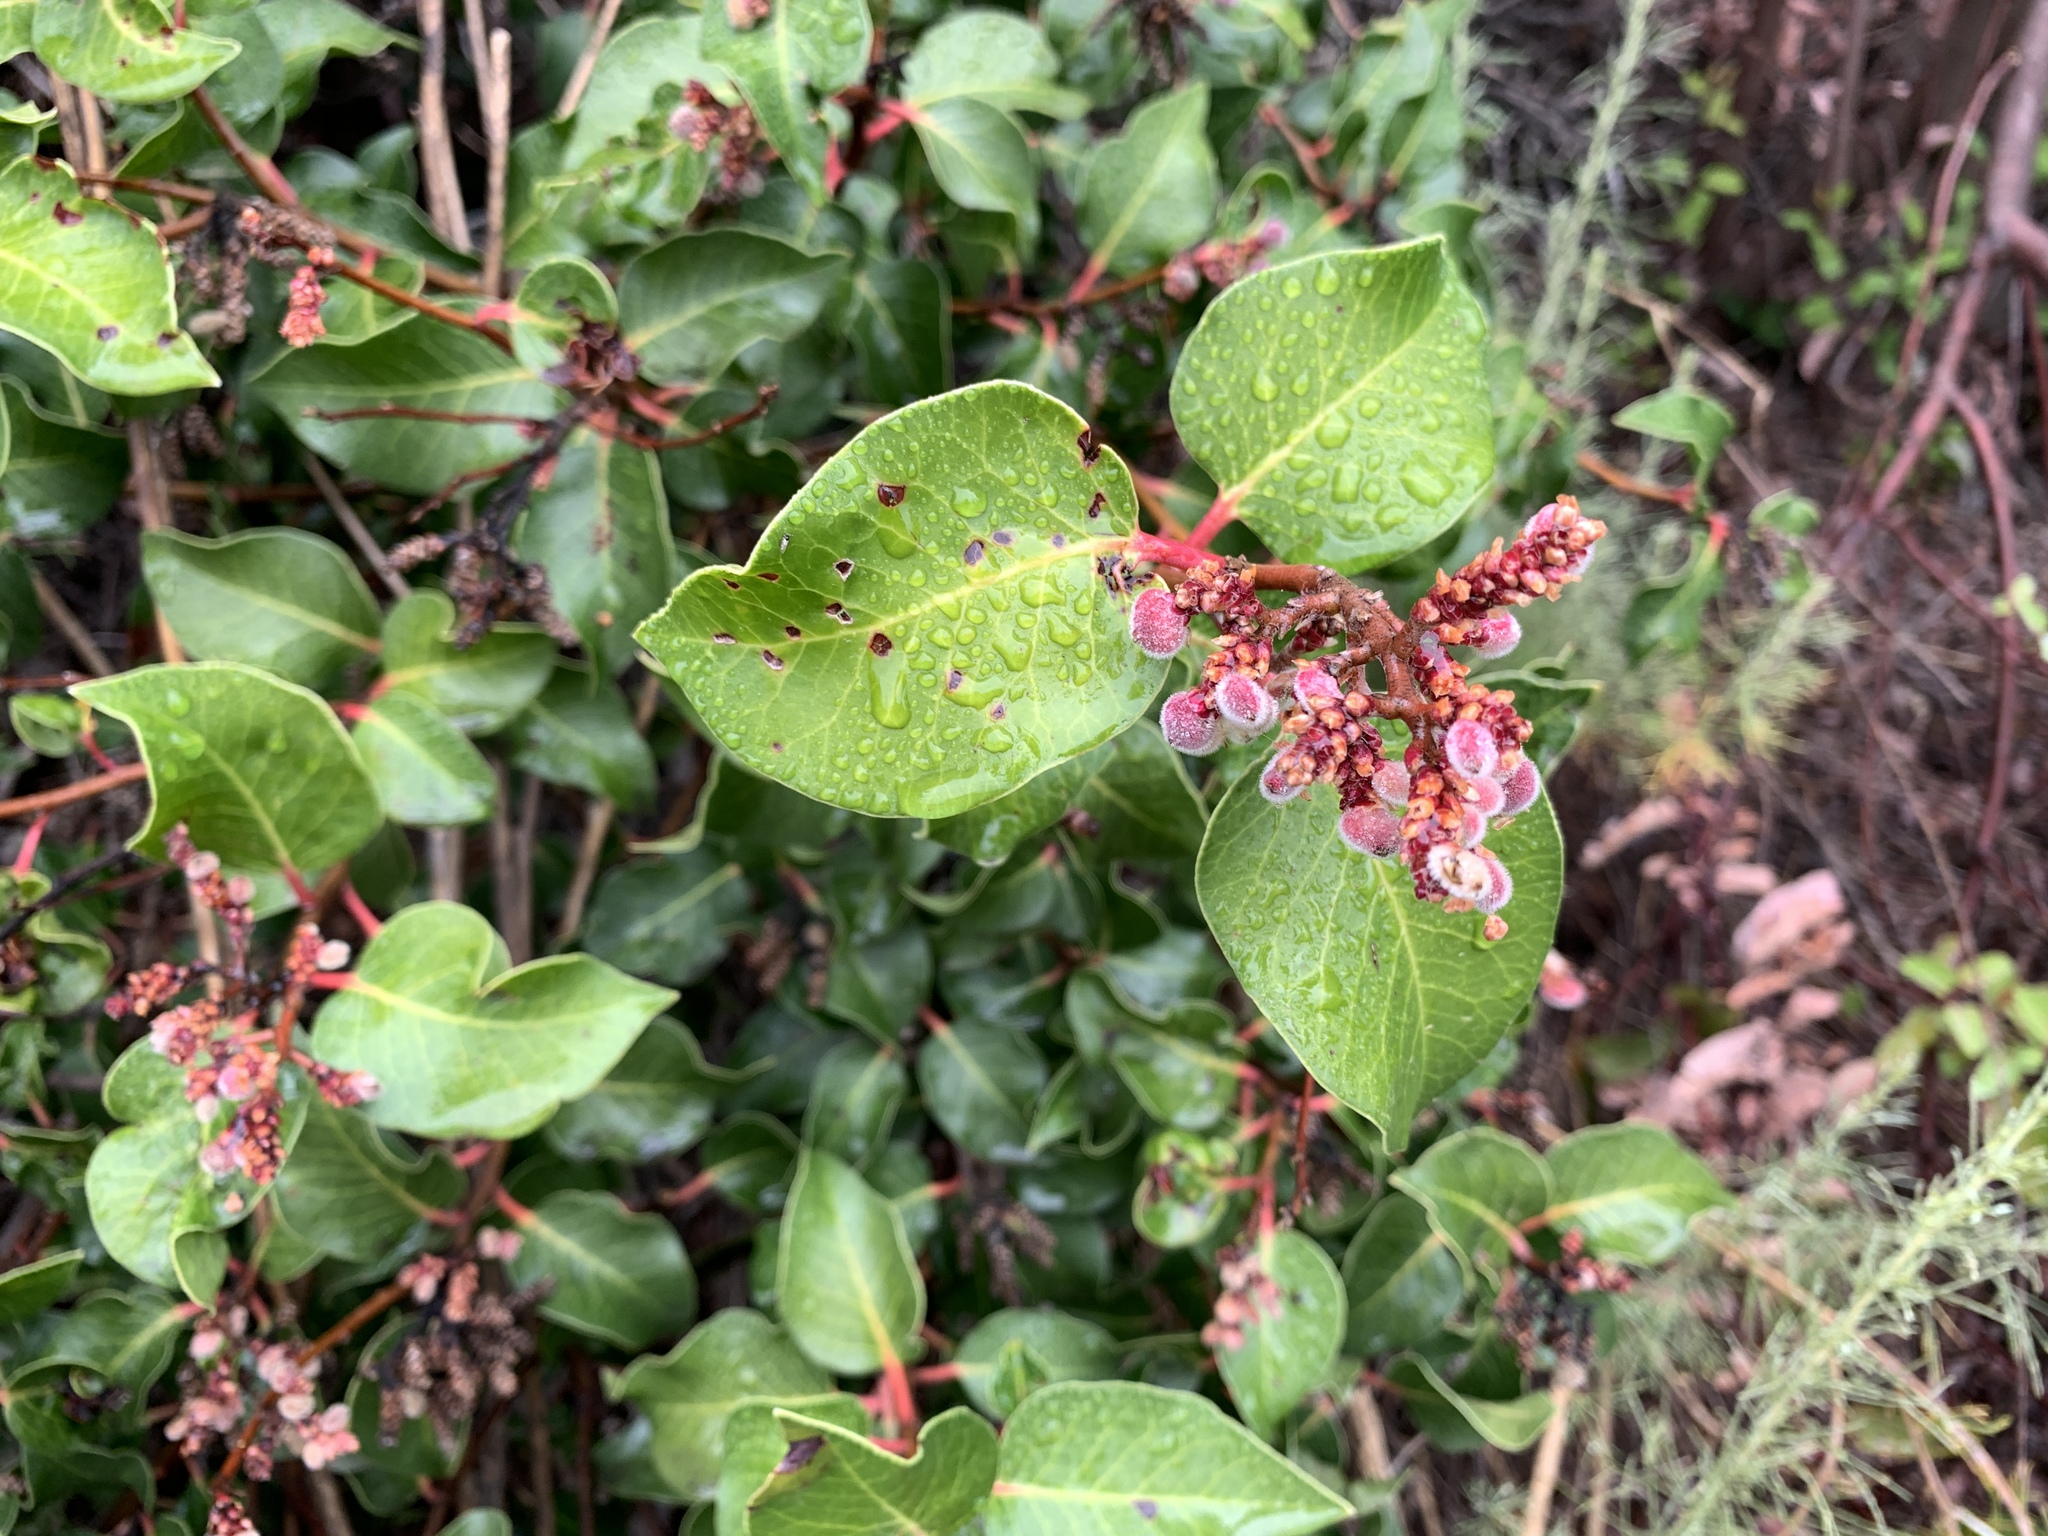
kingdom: Plantae
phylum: Tracheophyta
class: Magnoliopsida
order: Sapindales
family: Anacardiaceae
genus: Rhus
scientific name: Rhus ovata
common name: Sugar sumac
